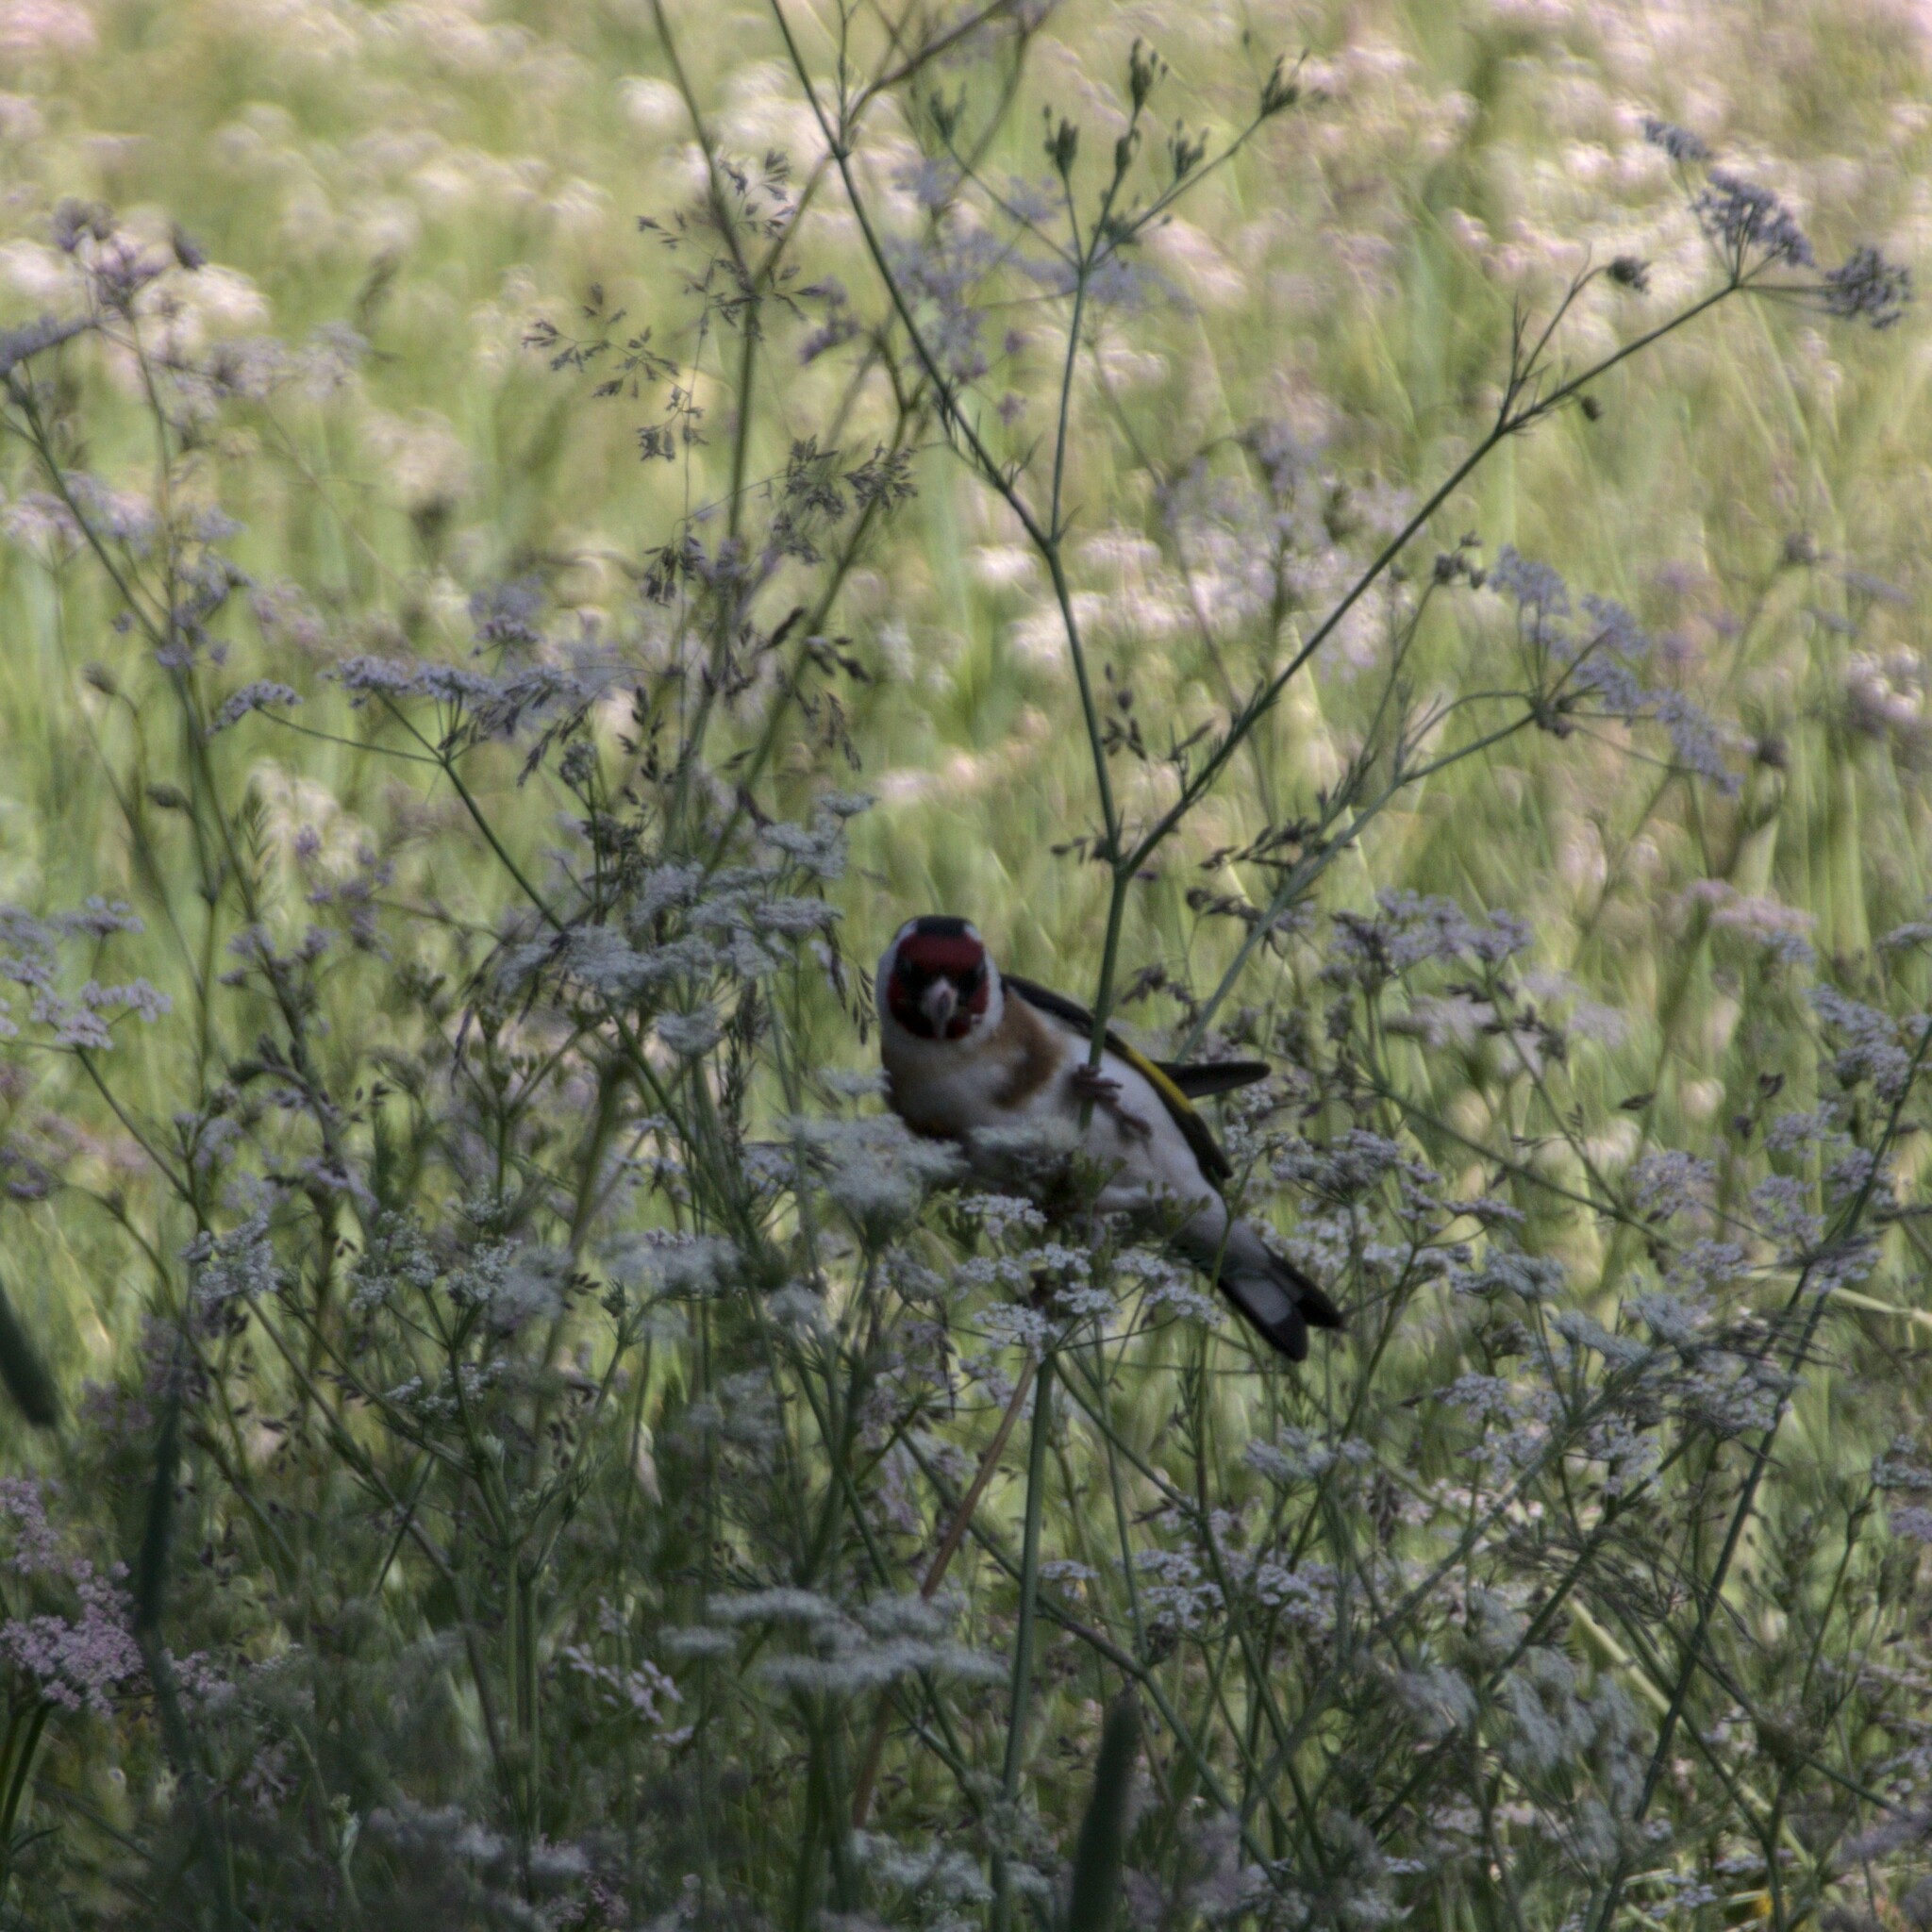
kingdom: Animalia
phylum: Chordata
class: Aves
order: Passeriformes
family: Fringillidae
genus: Carduelis
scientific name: Carduelis carduelis
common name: European goldfinch
